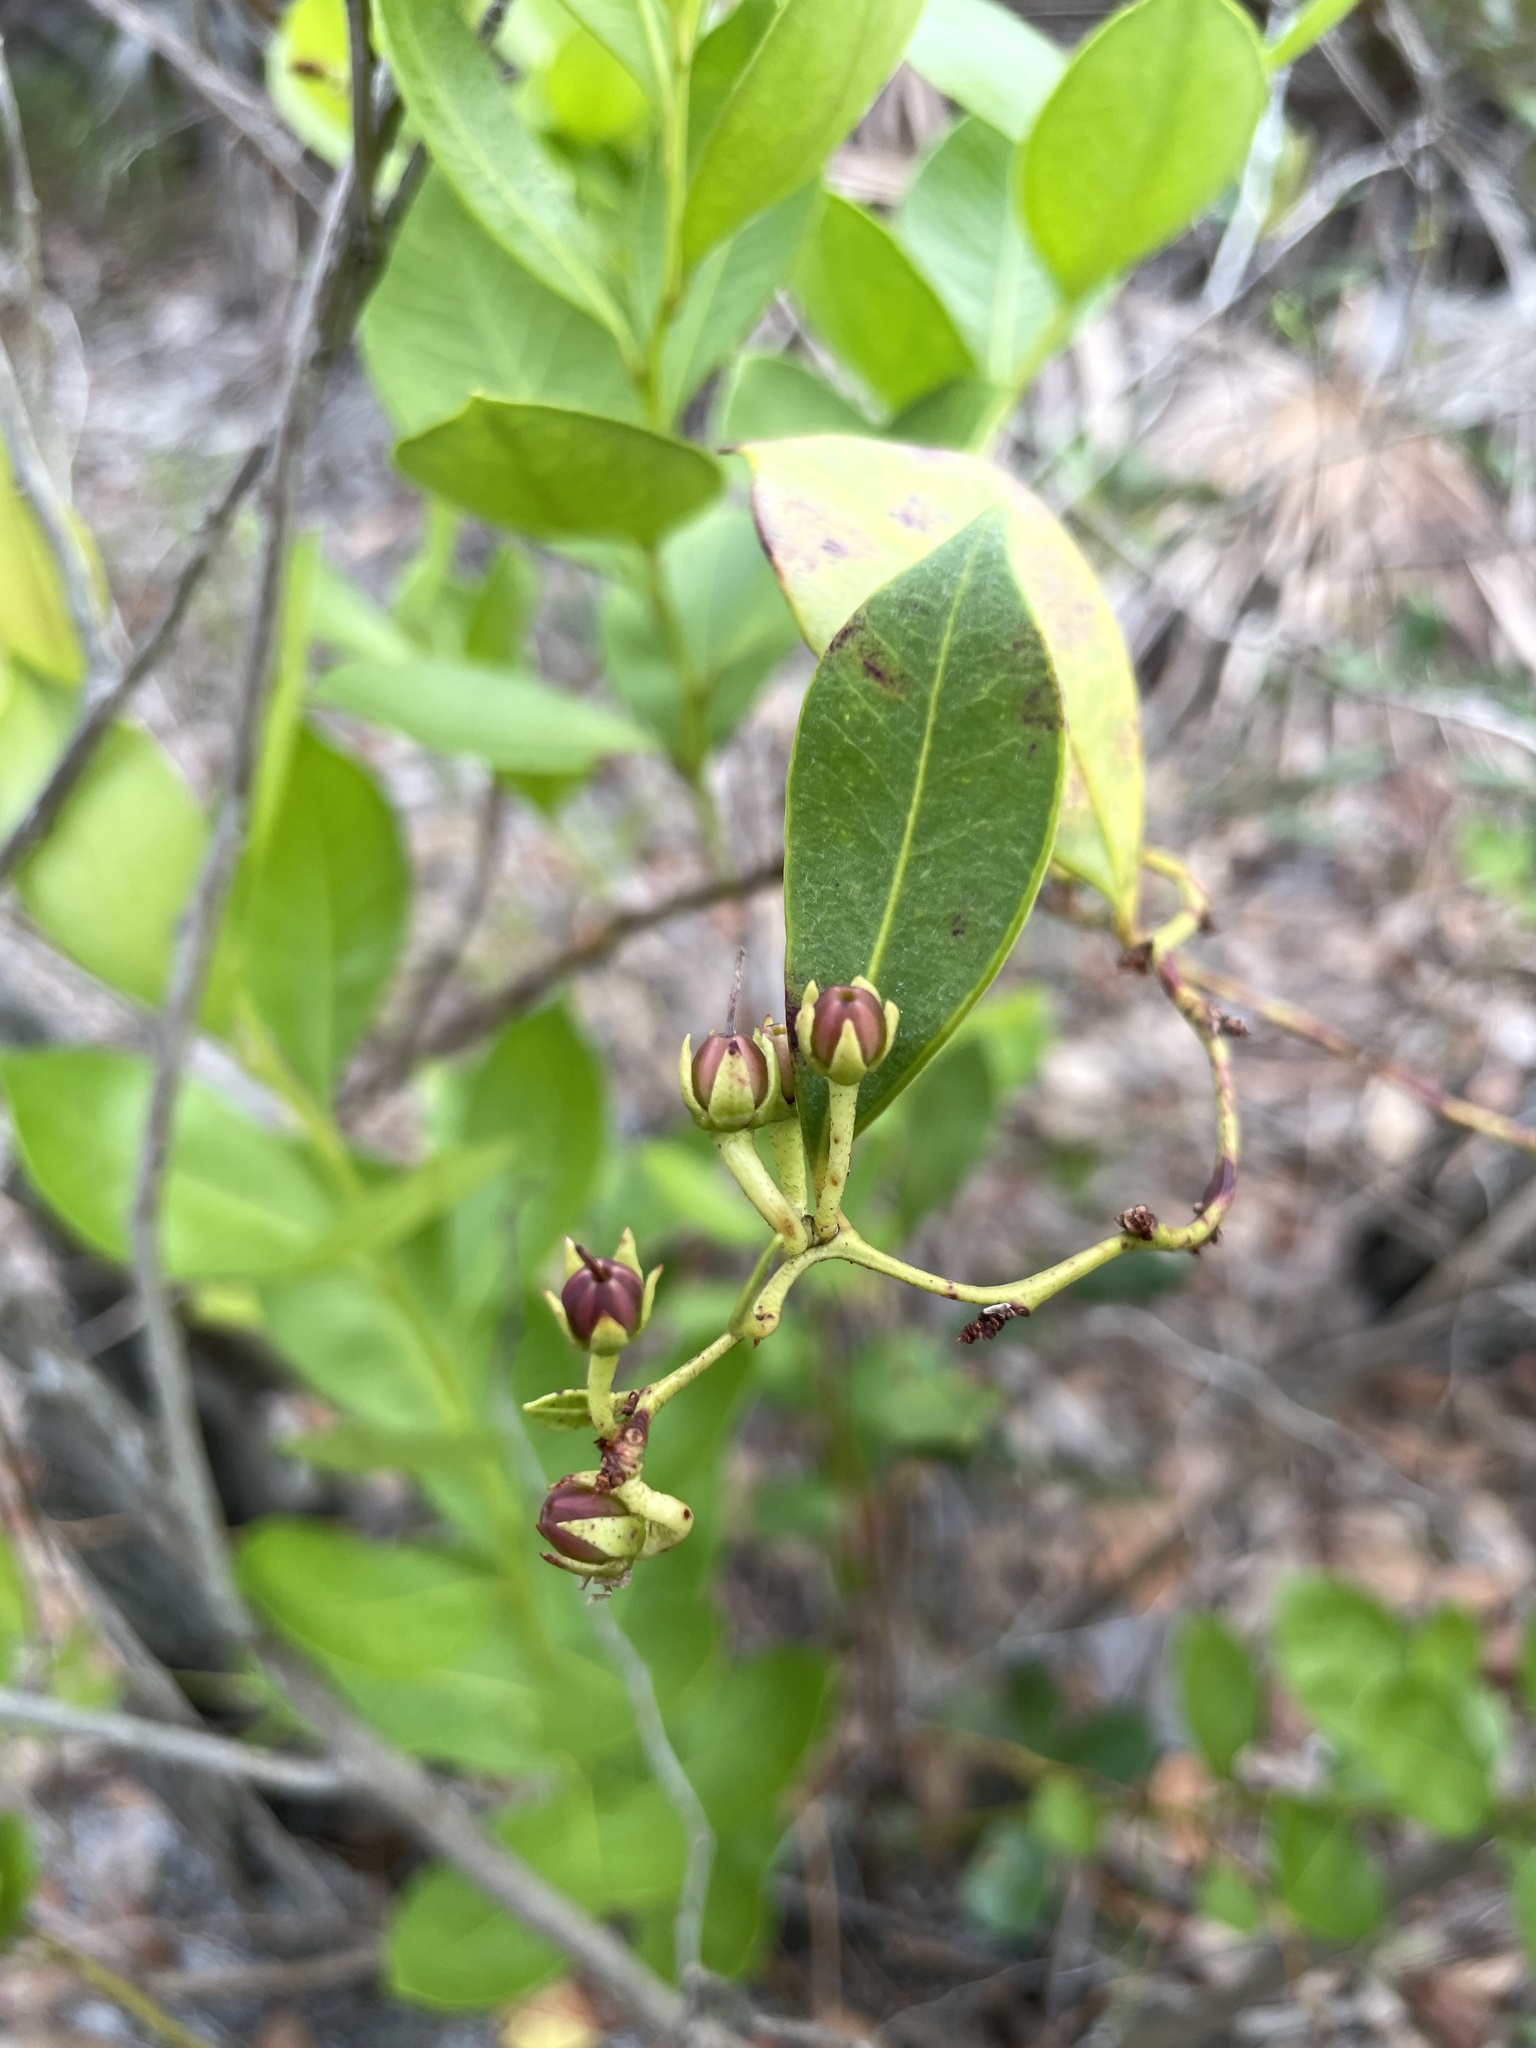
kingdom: Plantae
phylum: Tracheophyta
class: Magnoliopsida
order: Ericales
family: Ericaceae
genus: Lyonia
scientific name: Lyonia lucida
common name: Fetterbush
